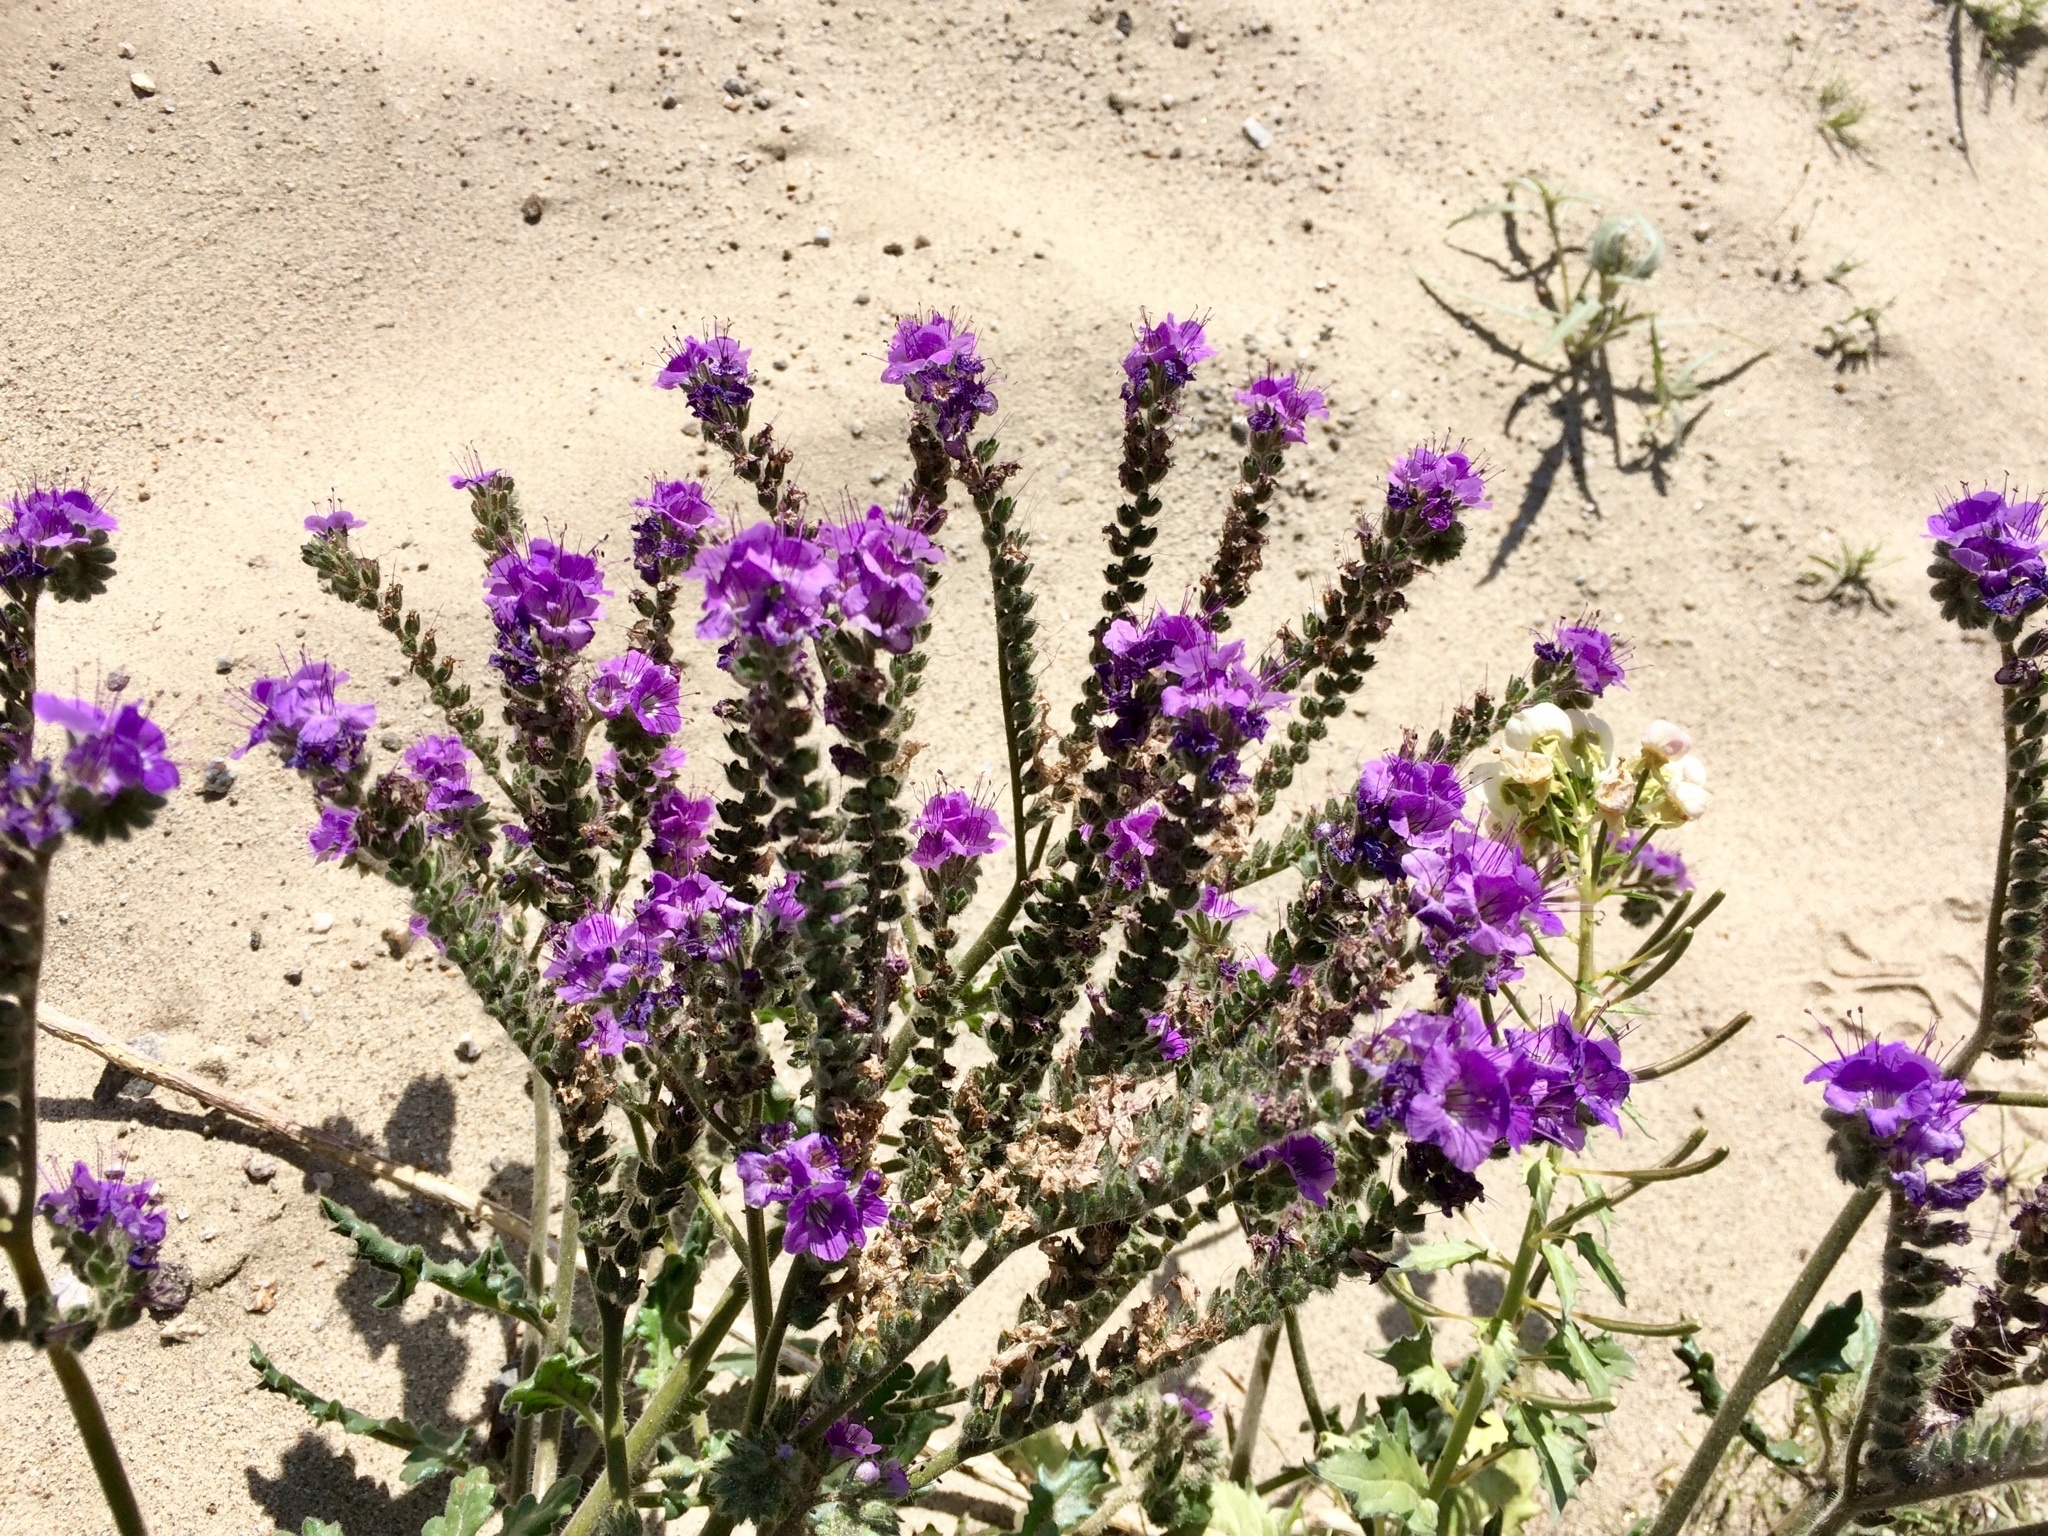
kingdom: Plantae
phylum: Tracheophyta
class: Magnoliopsida
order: Boraginales
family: Hydrophyllaceae
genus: Phacelia
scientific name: Phacelia crenulata
